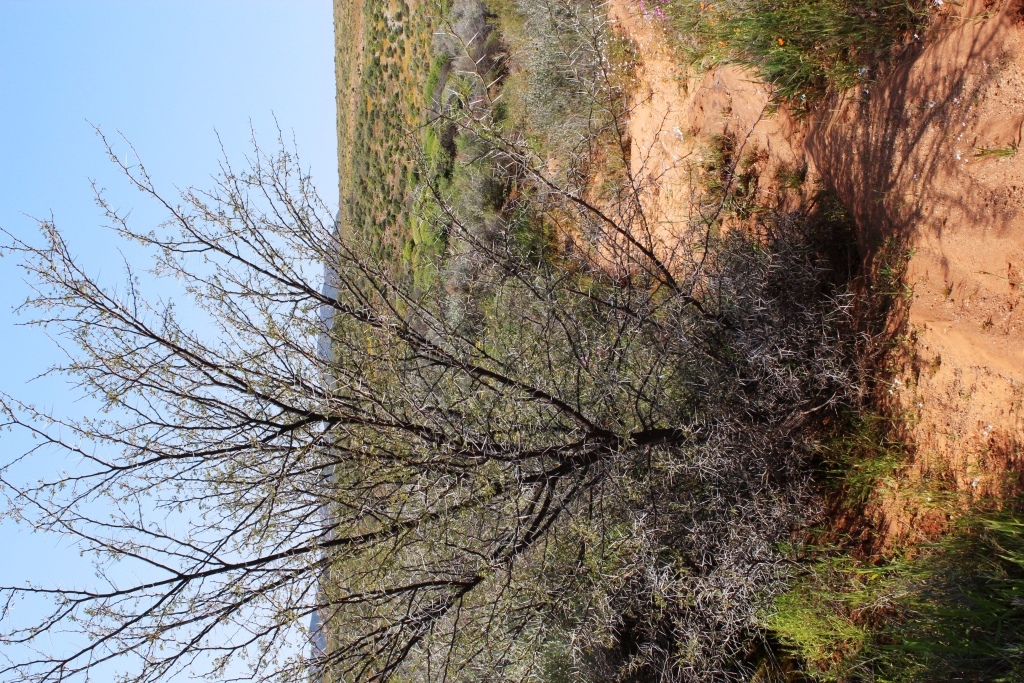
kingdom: Plantae
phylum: Tracheophyta
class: Magnoliopsida
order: Fabales
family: Fabaceae
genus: Vachellia
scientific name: Vachellia karroo
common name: Sweet thorn
